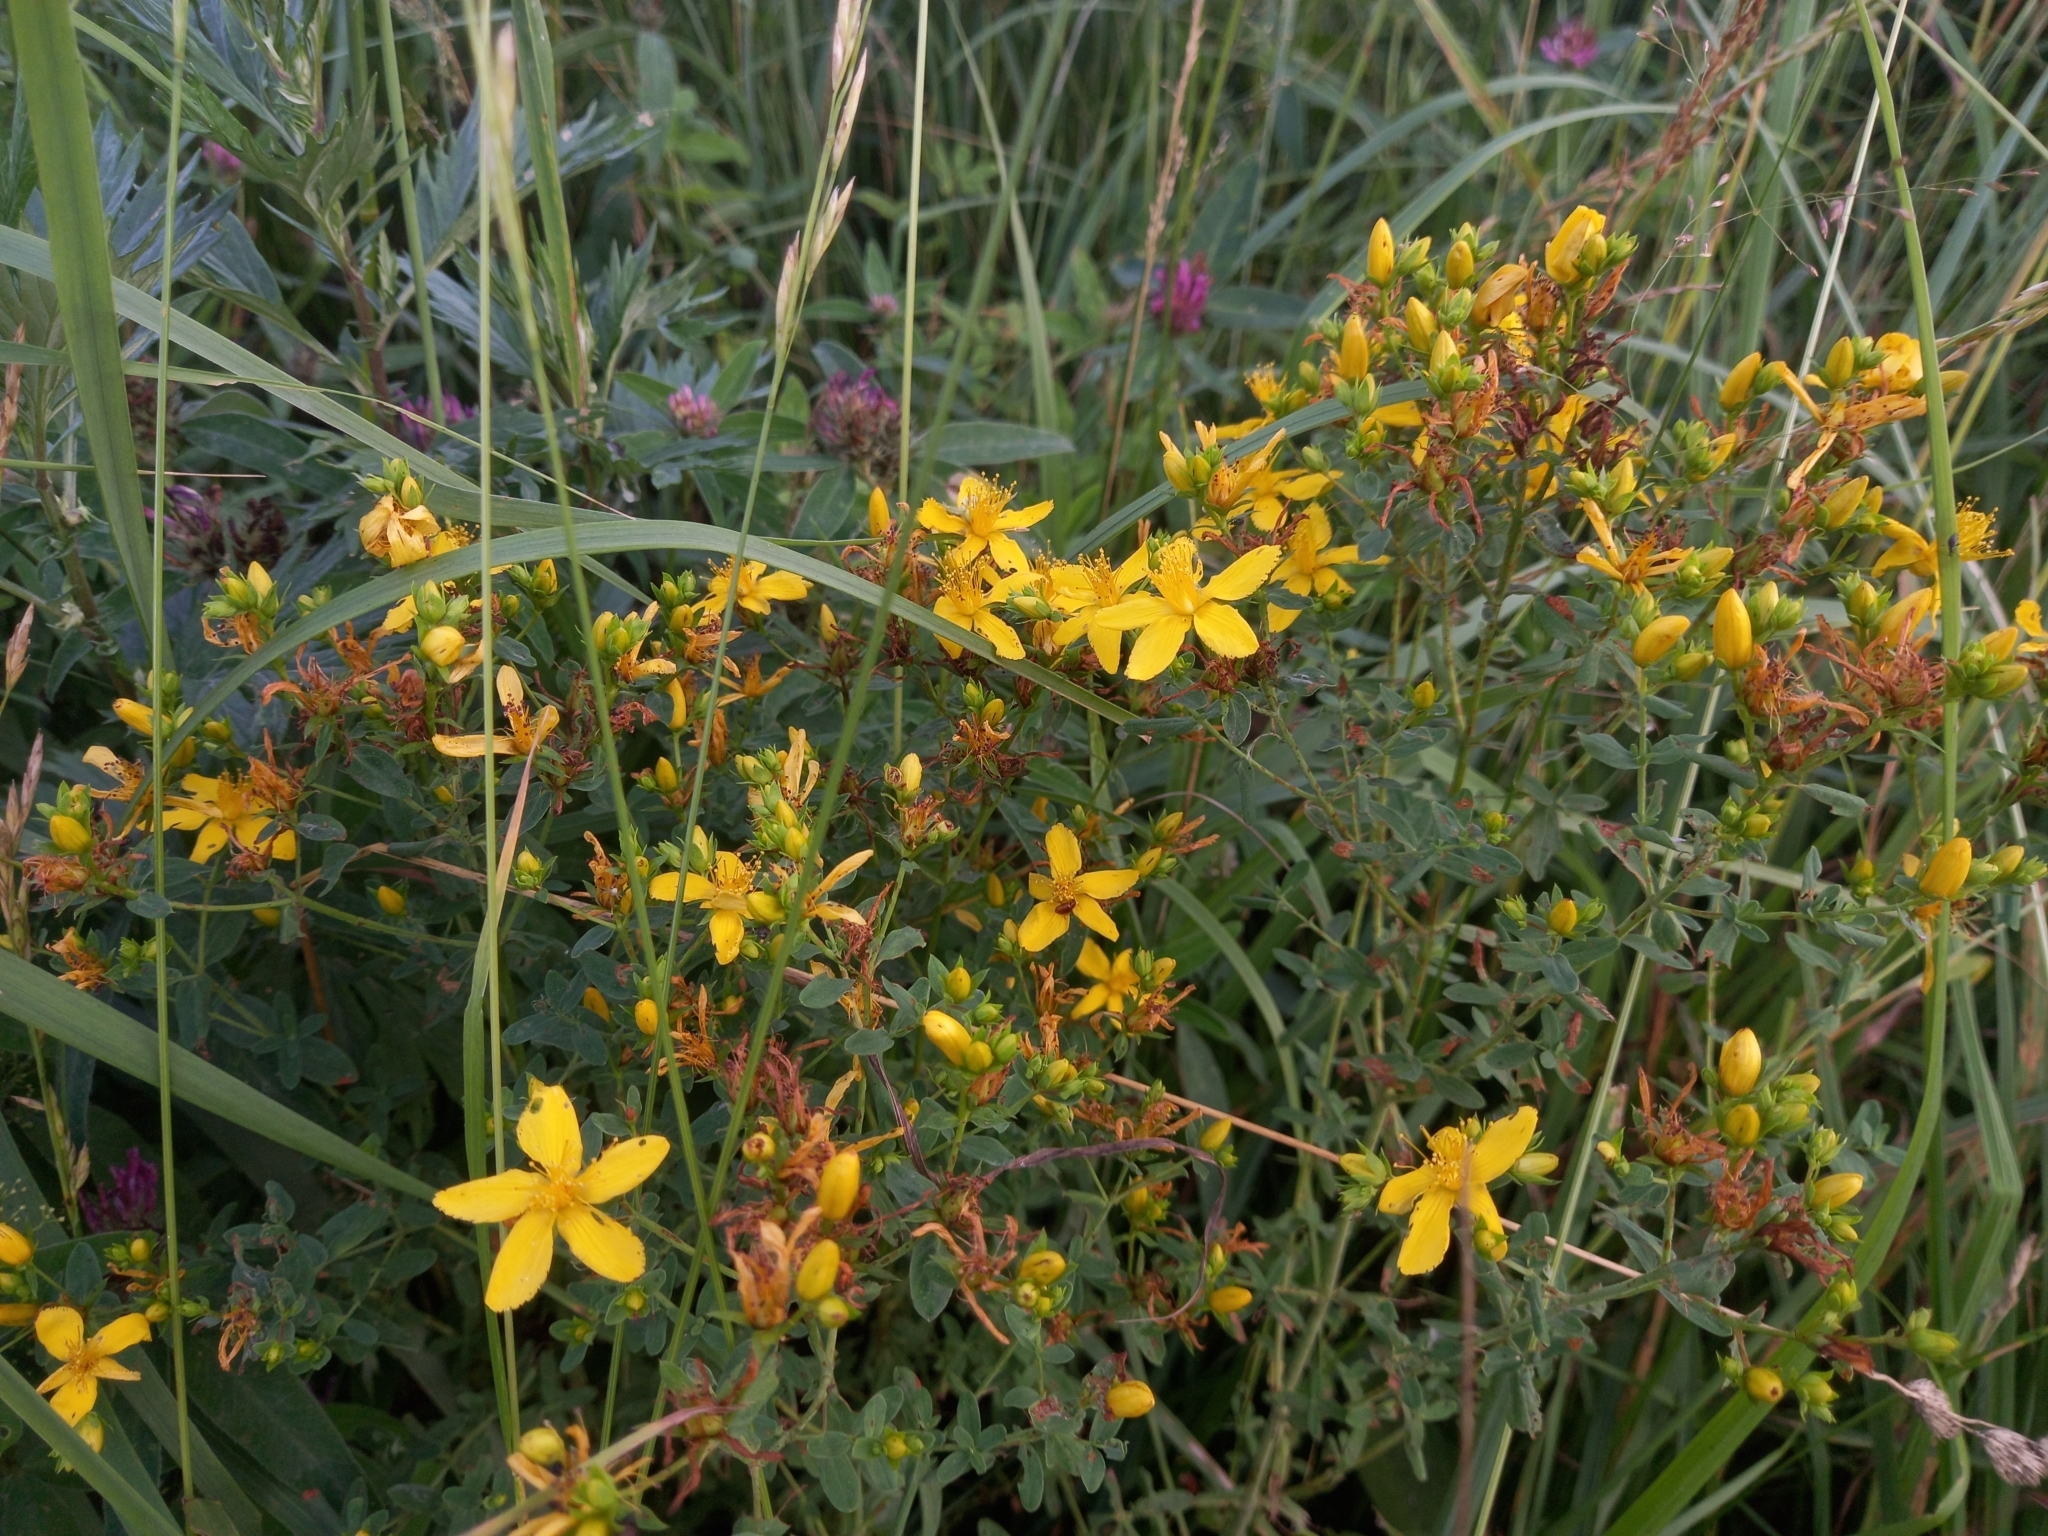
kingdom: Plantae
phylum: Tracheophyta
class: Magnoliopsida
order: Malpighiales
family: Hypericaceae
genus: Hypericum
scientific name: Hypericum perforatum
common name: Common st. johnswort
